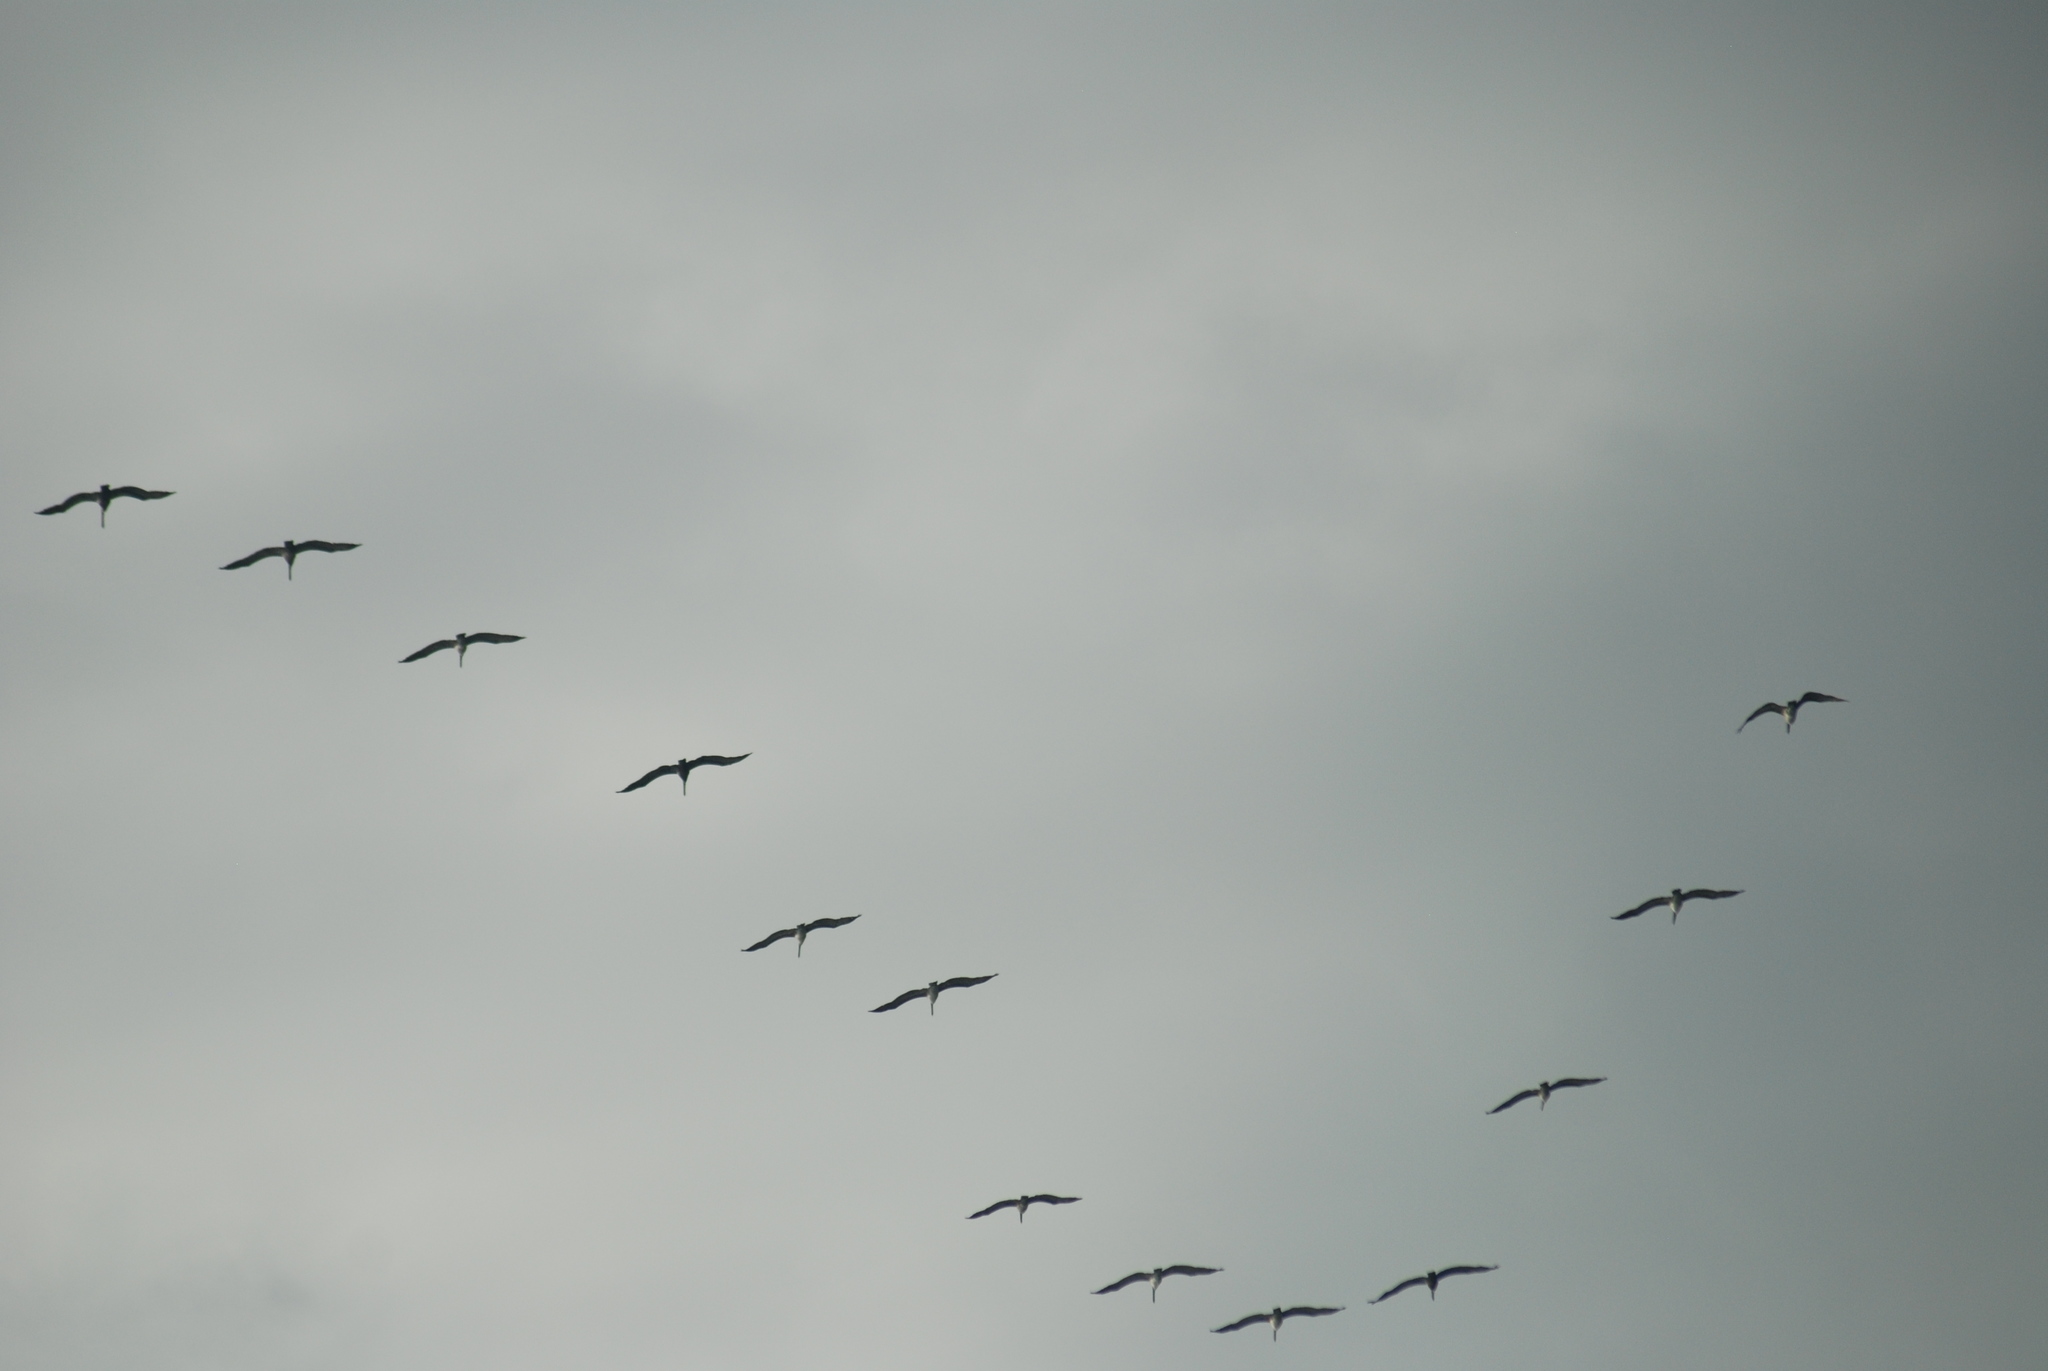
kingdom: Animalia
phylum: Chordata
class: Aves
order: Pelecaniformes
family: Pelecanidae
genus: Pelecanus
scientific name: Pelecanus occidentalis
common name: Brown pelican
